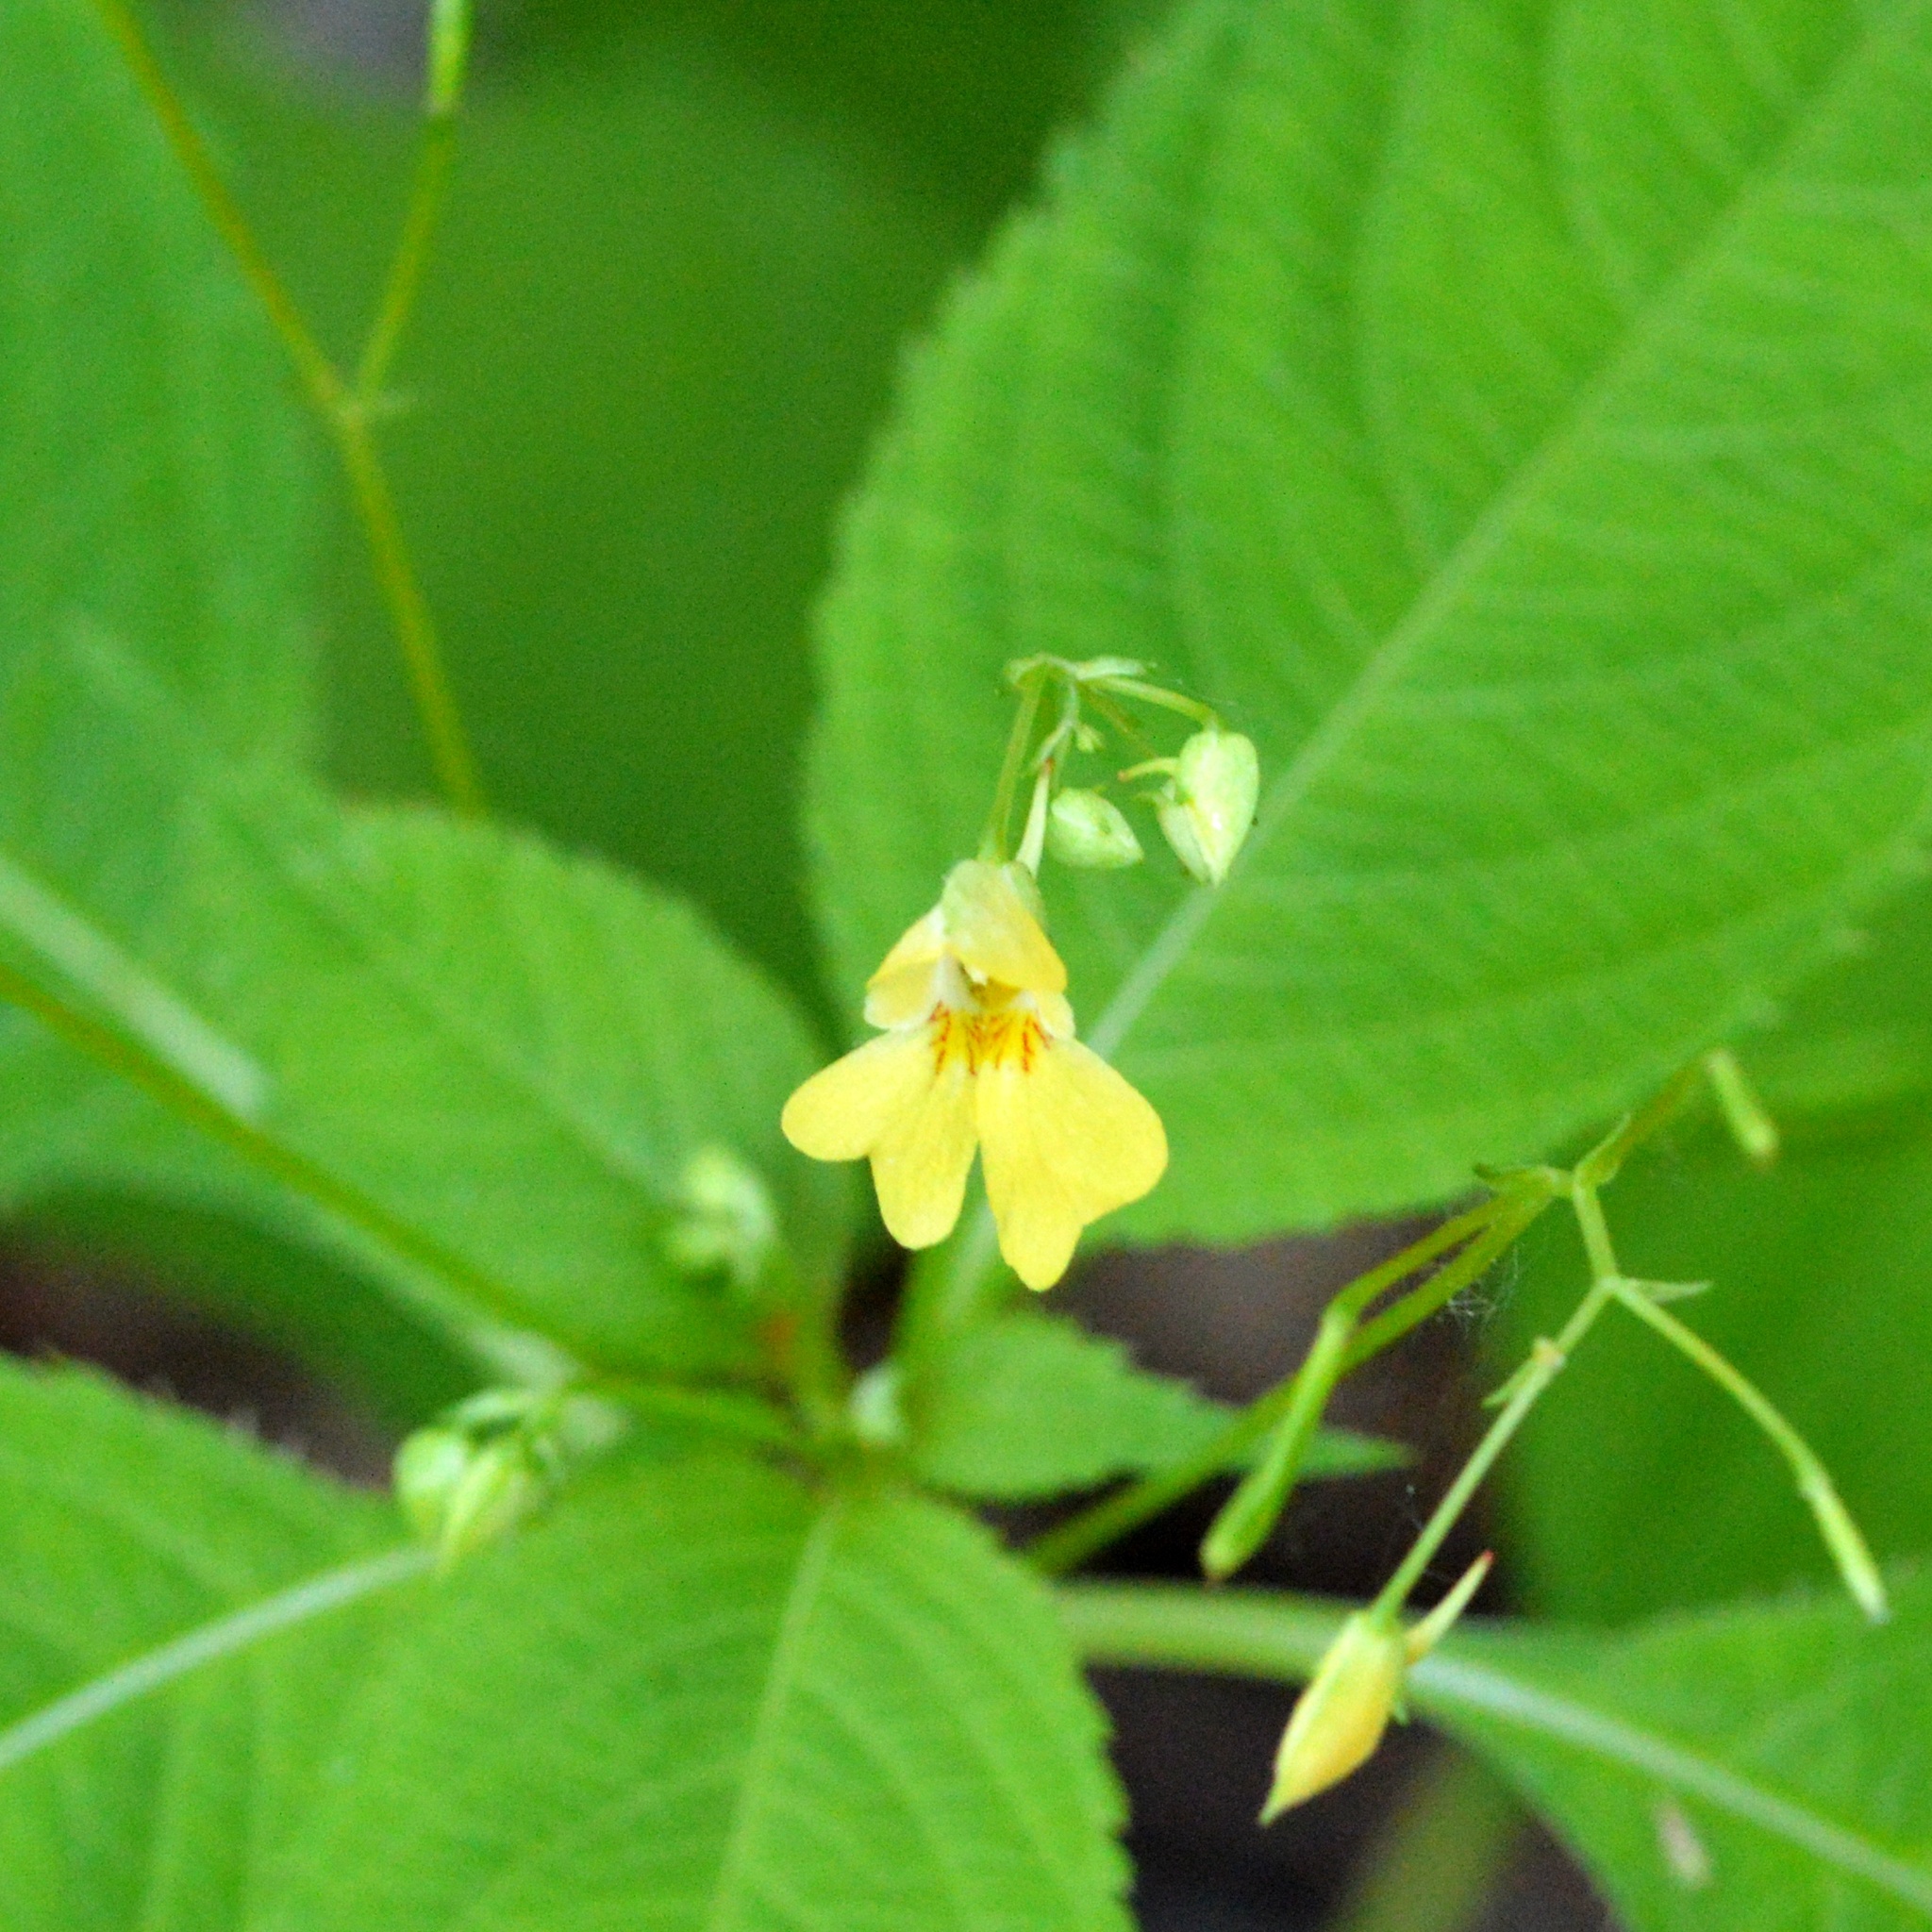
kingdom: Plantae
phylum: Tracheophyta
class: Magnoliopsida
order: Ericales
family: Balsaminaceae
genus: Impatiens
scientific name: Impatiens parviflora
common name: Small balsam
